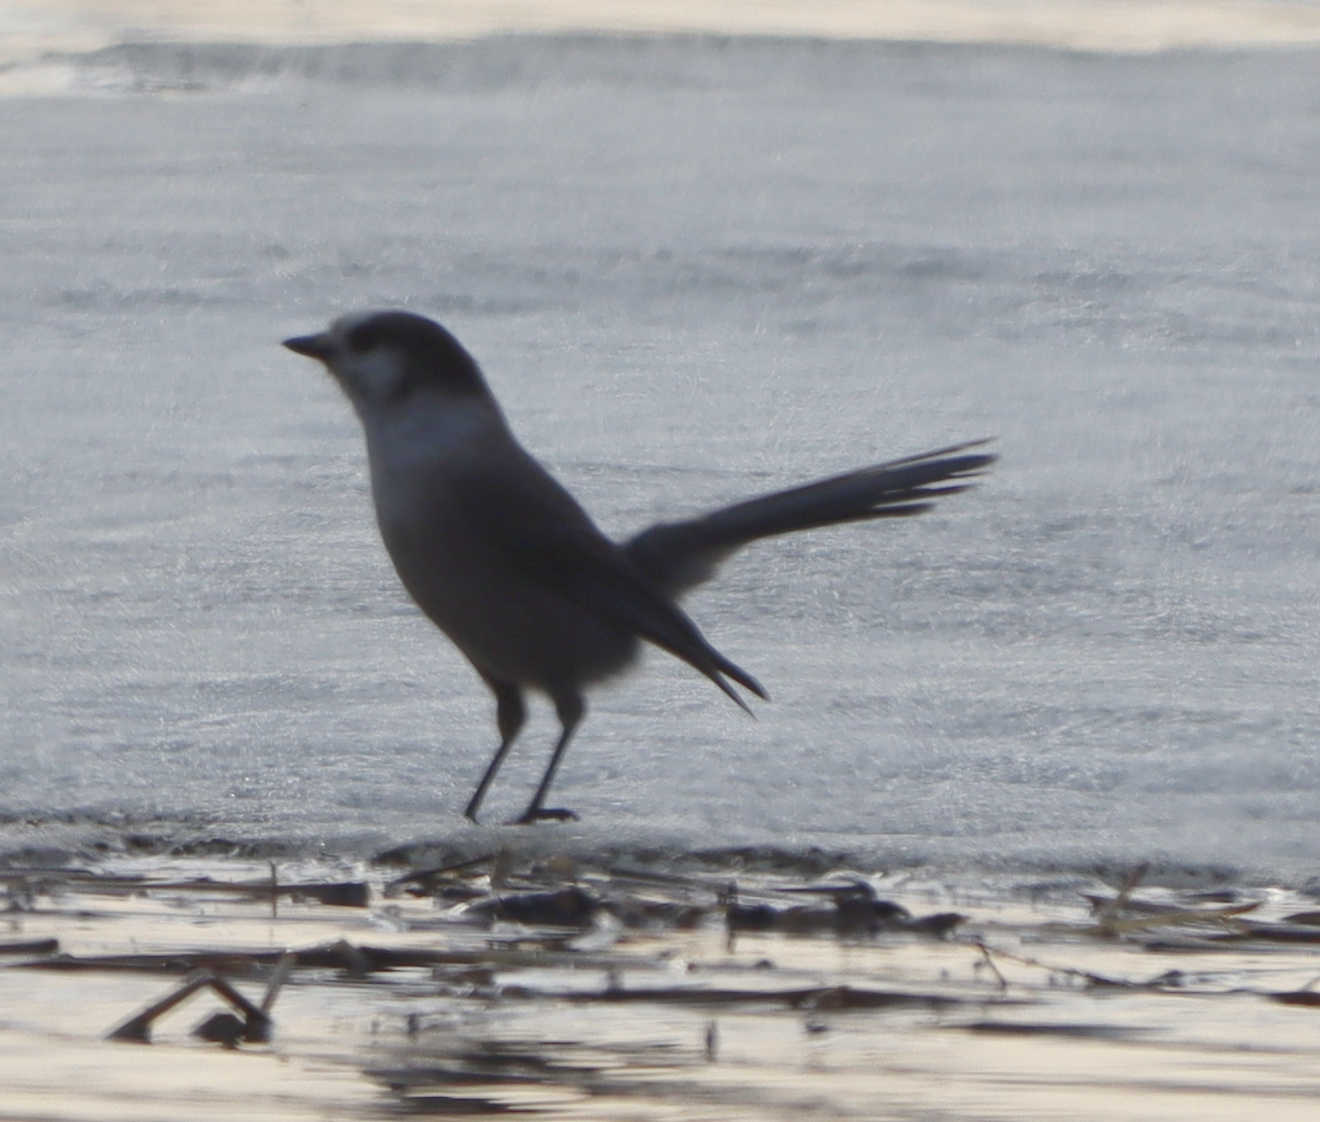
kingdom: Animalia
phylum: Chordata
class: Aves
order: Passeriformes
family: Corvidae
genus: Perisoreus
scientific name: Perisoreus canadensis
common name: Gray jay
